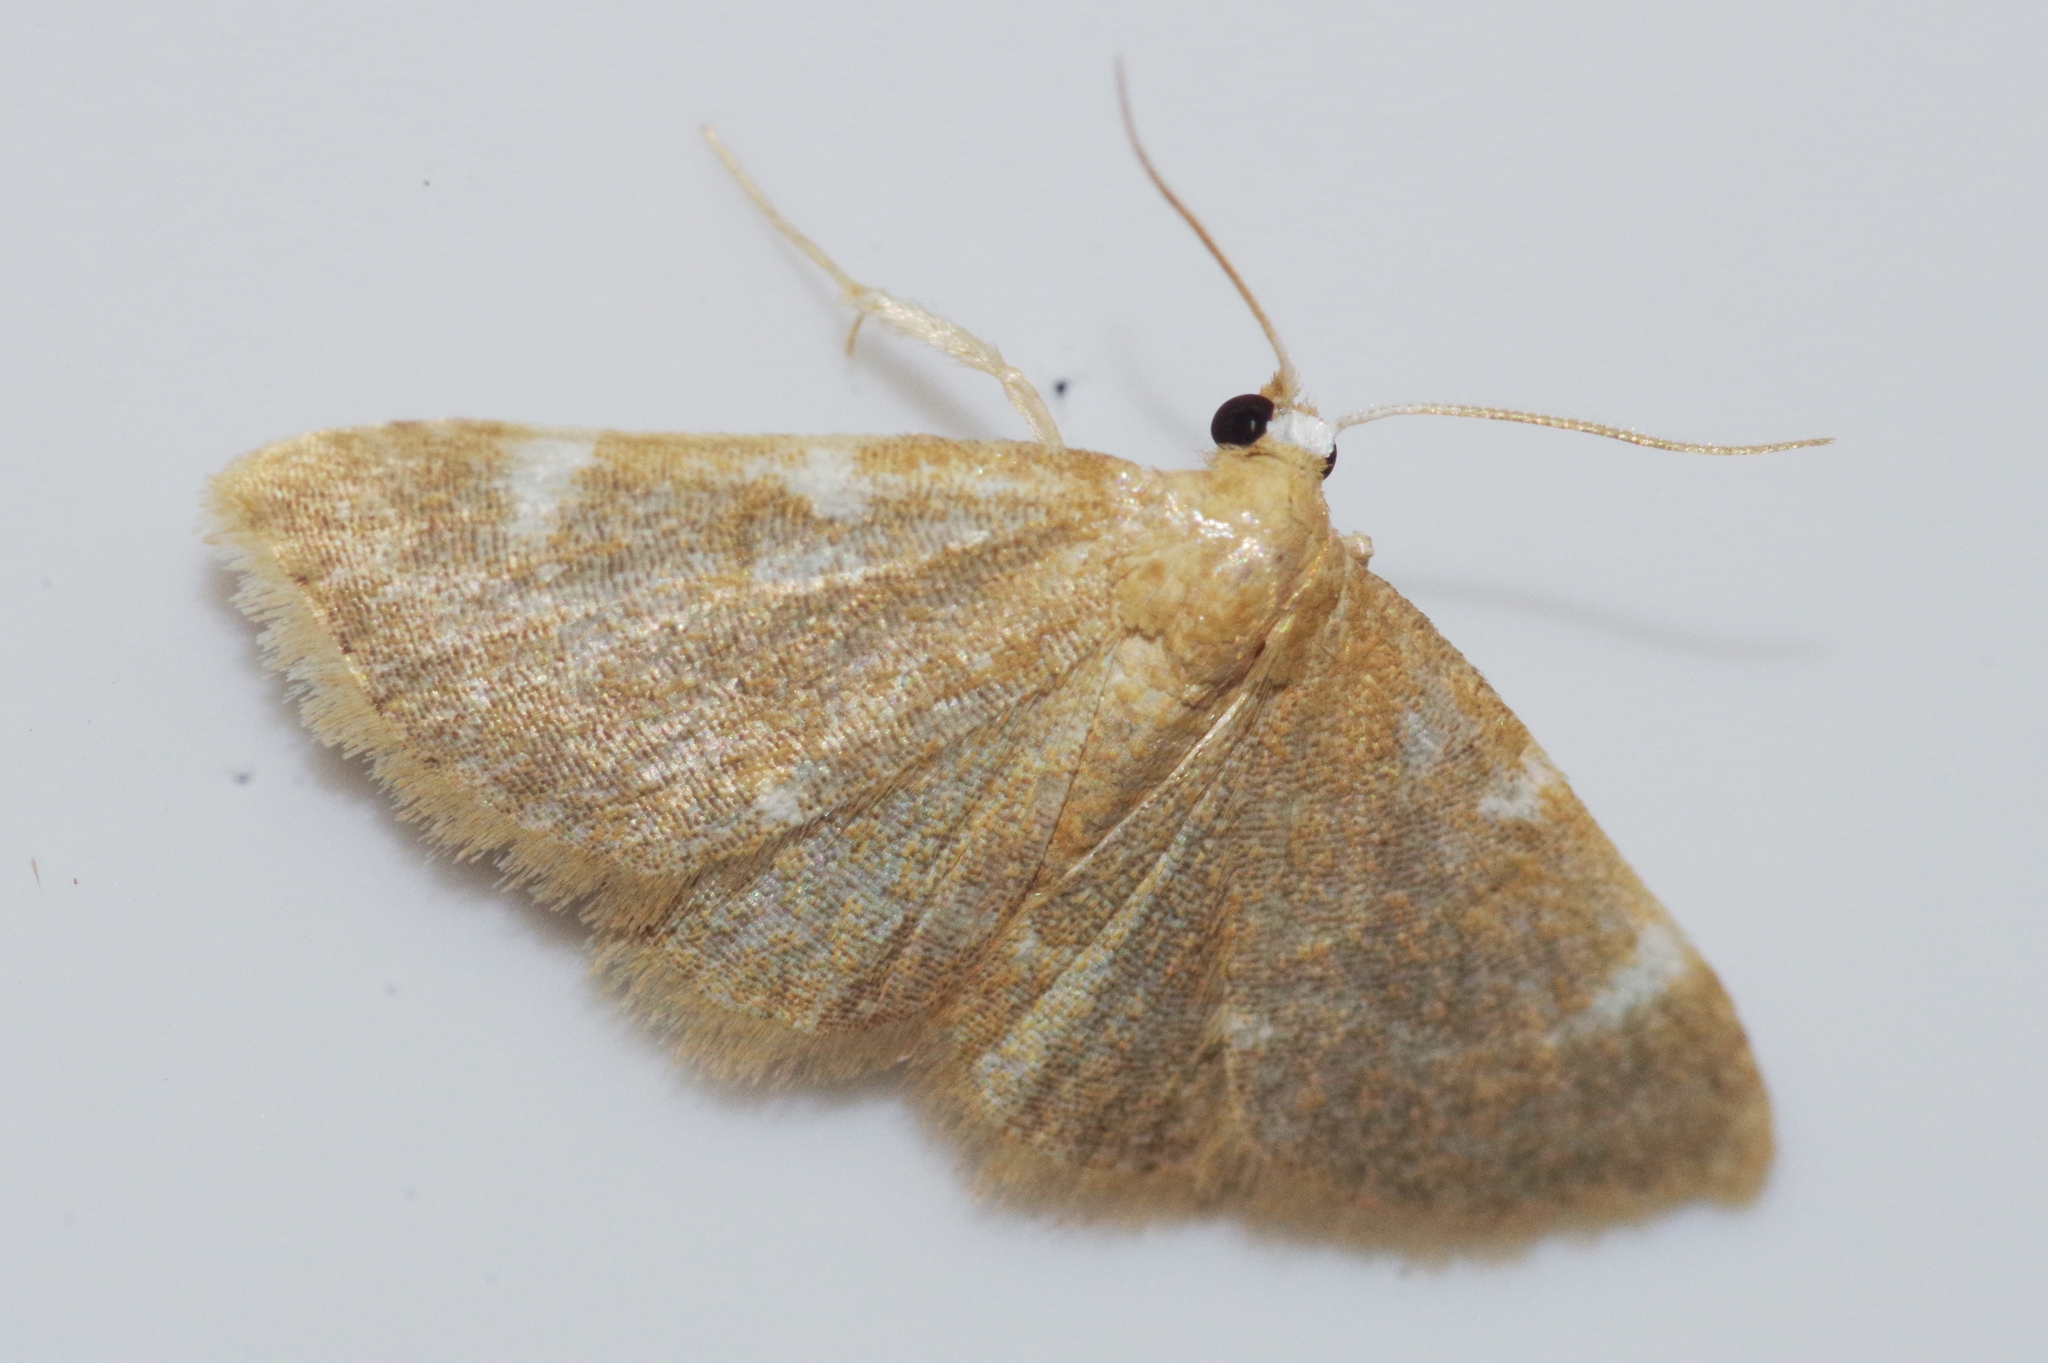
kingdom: Animalia
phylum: Arthropoda
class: Insecta
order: Lepidoptera
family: Noctuidae
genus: Enispa
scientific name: Enispa
